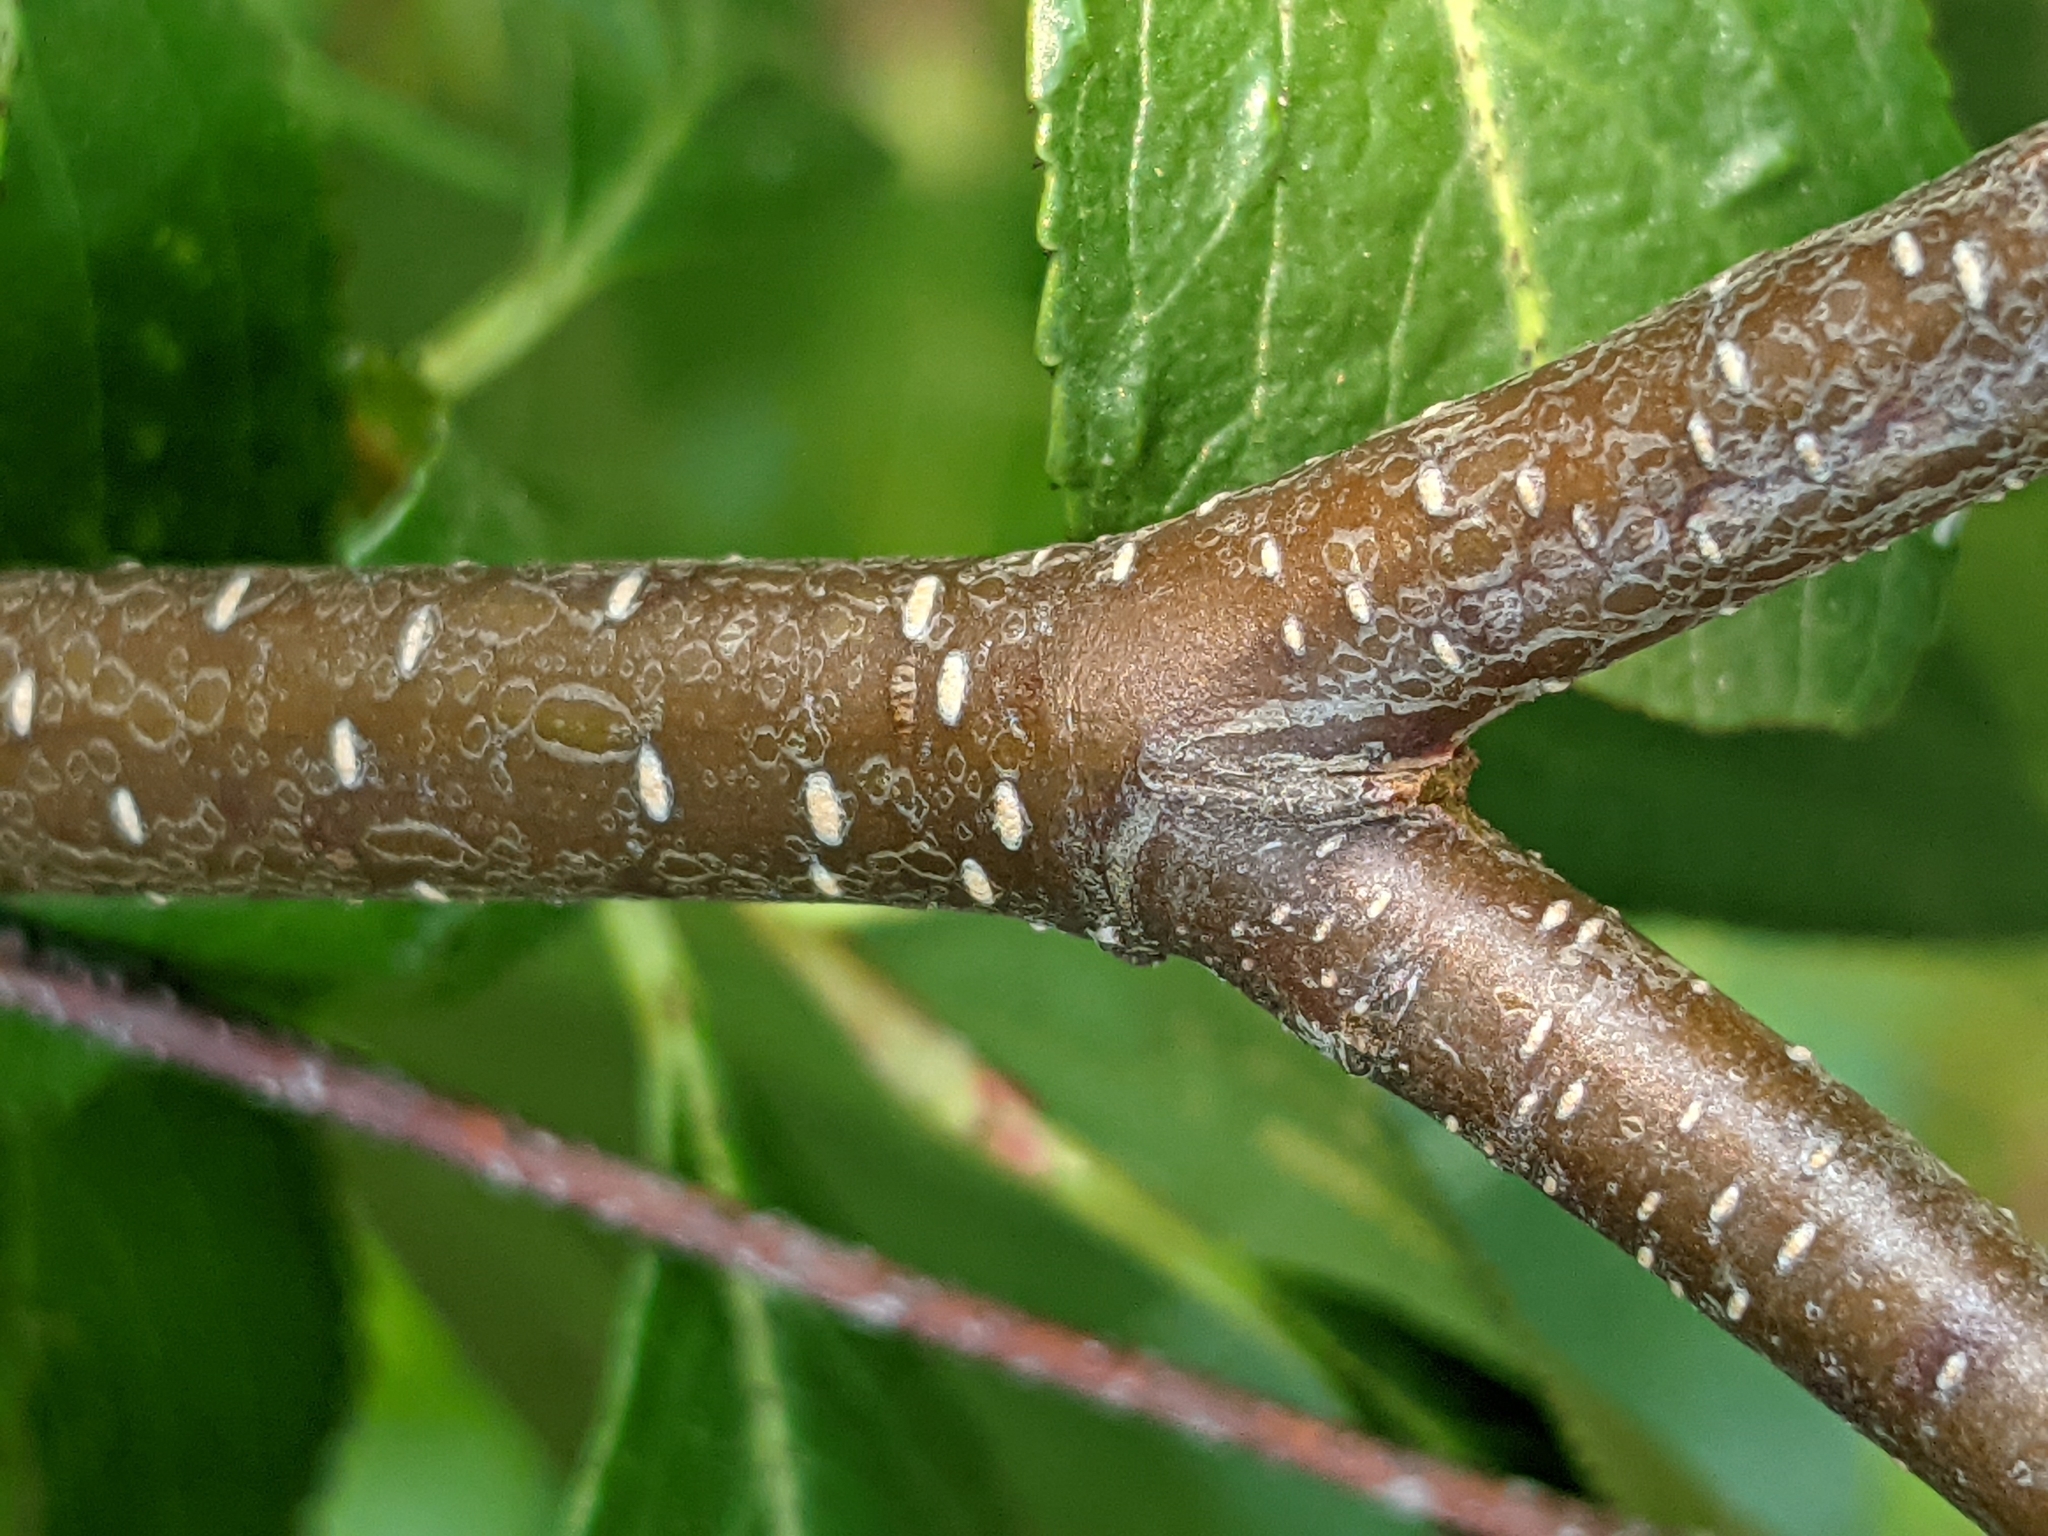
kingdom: Plantae
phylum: Tracheophyta
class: Magnoliopsida
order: Fagales
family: Betulaceae
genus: Betula
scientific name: Betula populifolia
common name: Fire birch
